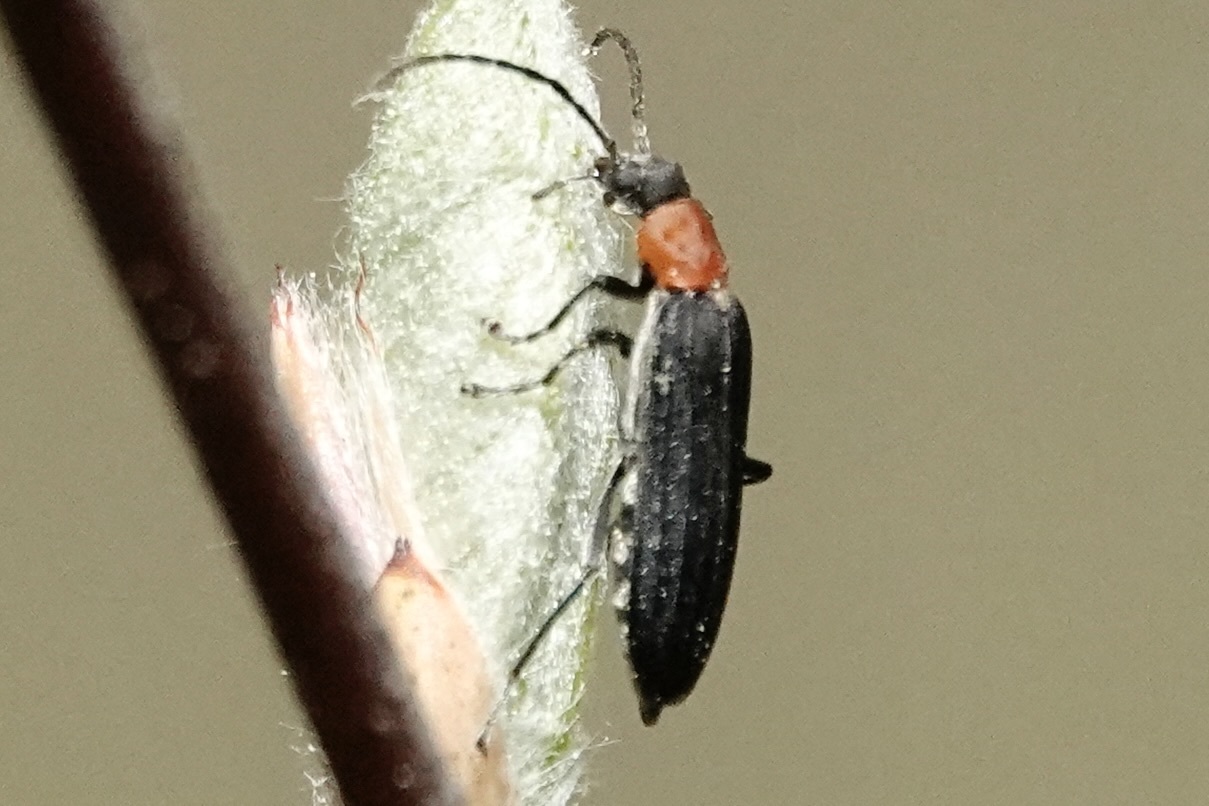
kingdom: Animalia
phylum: Arthropoda
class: Insecta
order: Coleoptera
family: Oedemeridae
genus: Ischnomera
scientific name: Ischnomera
